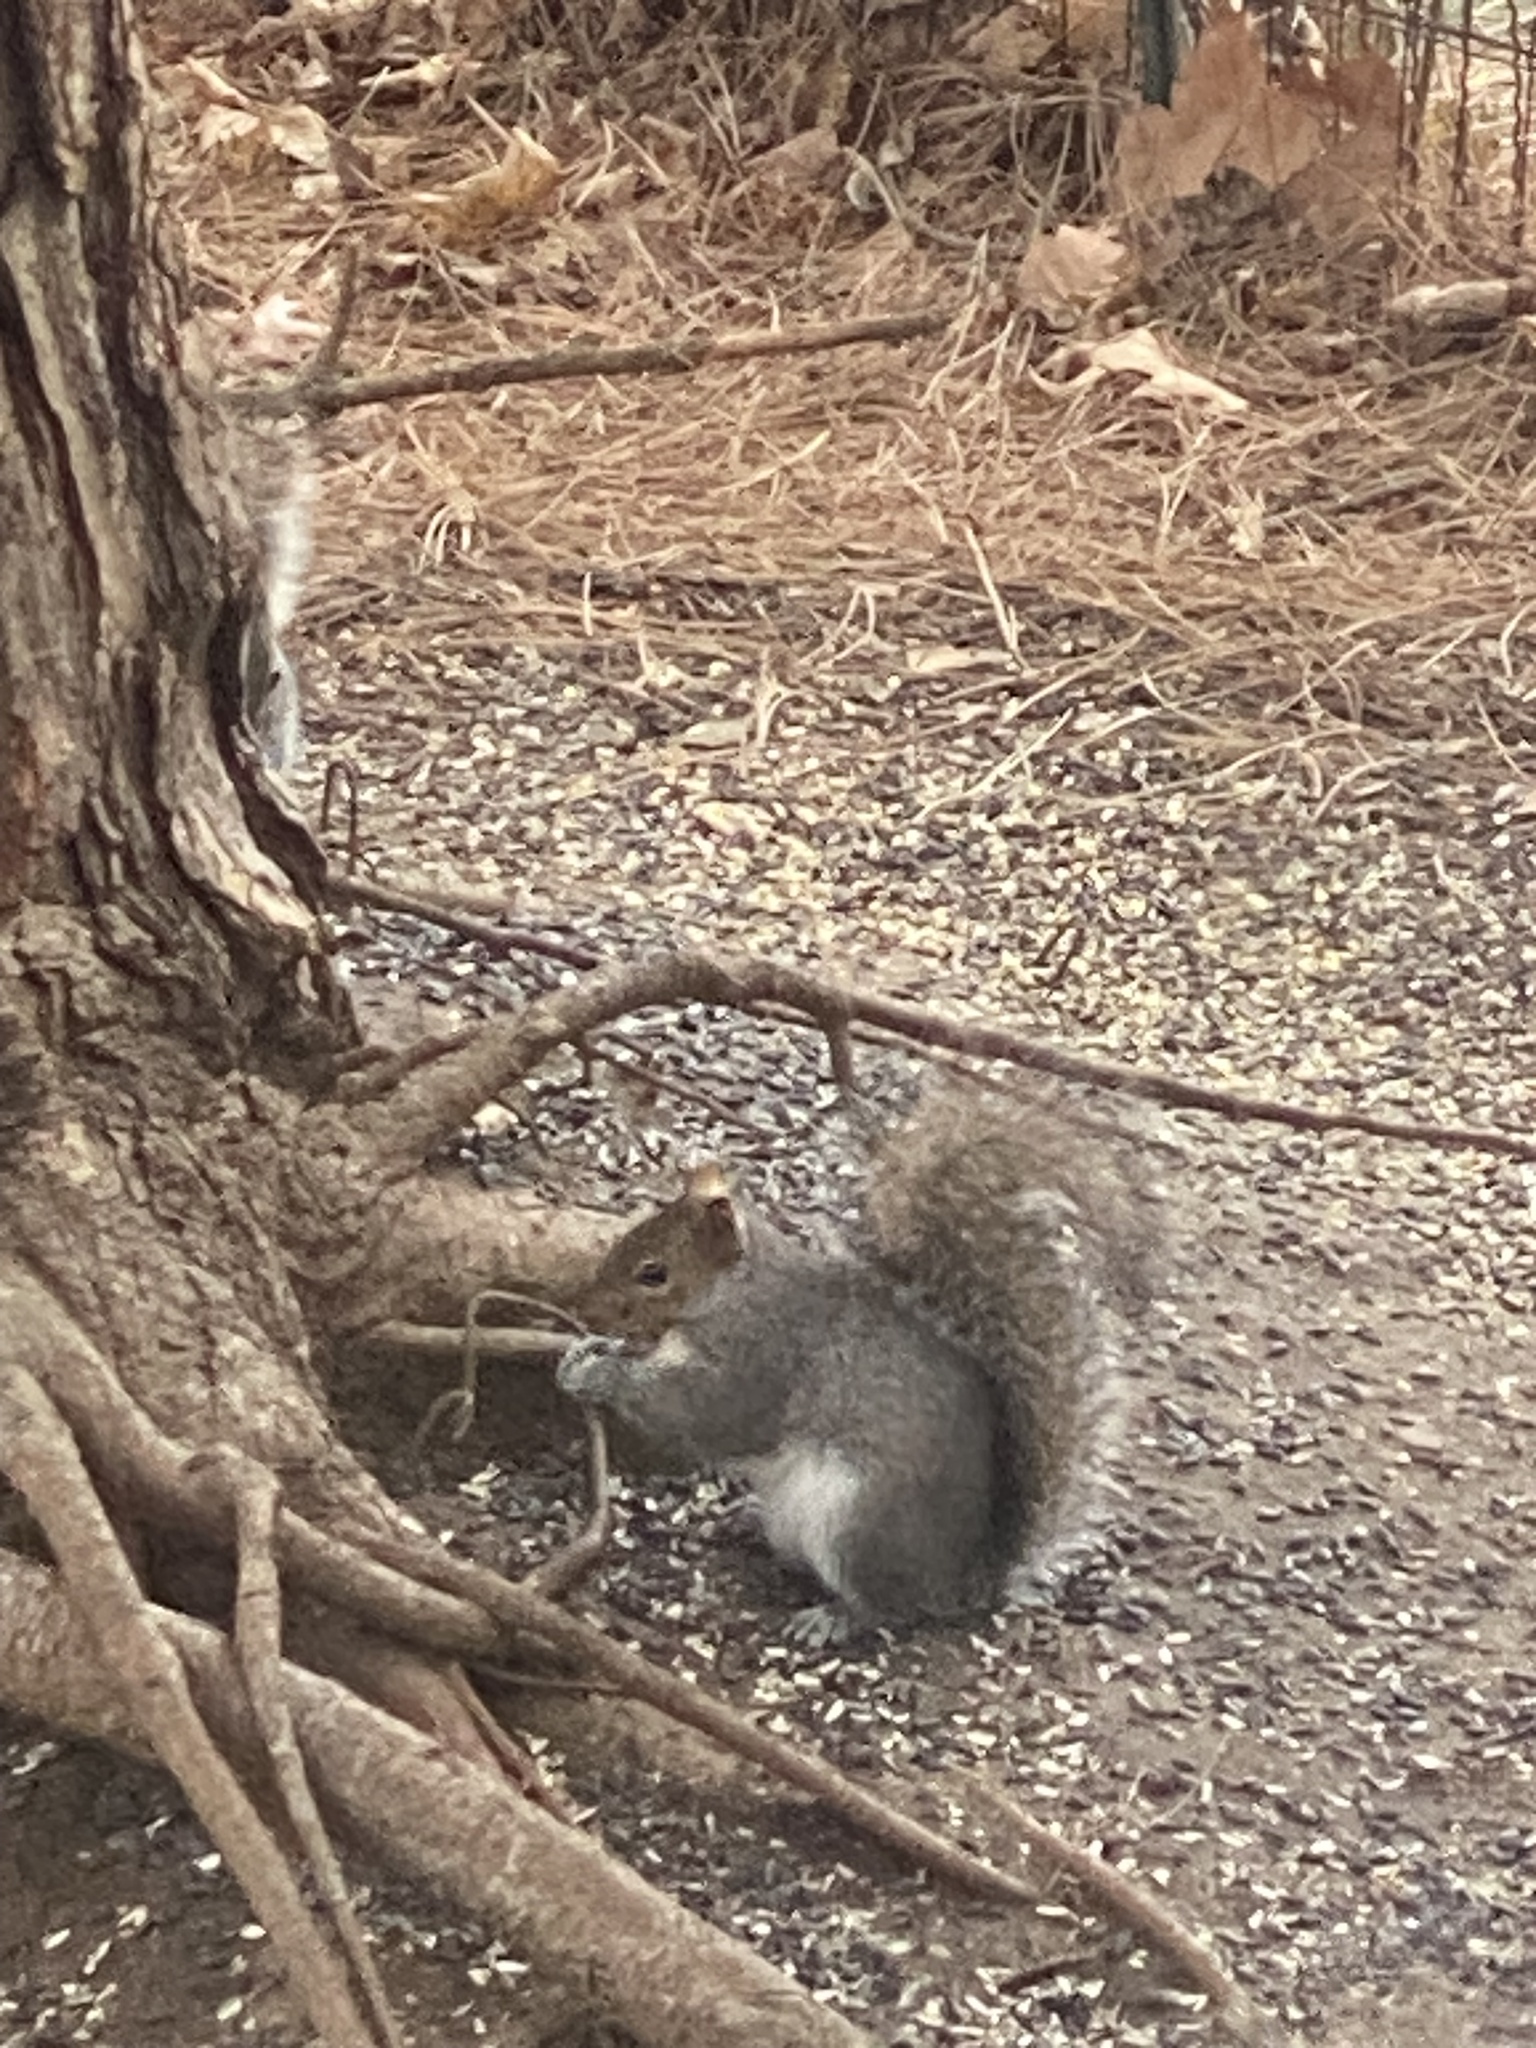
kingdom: Animalia
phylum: Chordata
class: Mammalia
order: Rodentia
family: Sciuridae
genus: Sciurus
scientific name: Sciurus carolinensis
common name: Eastern gray squirrel
